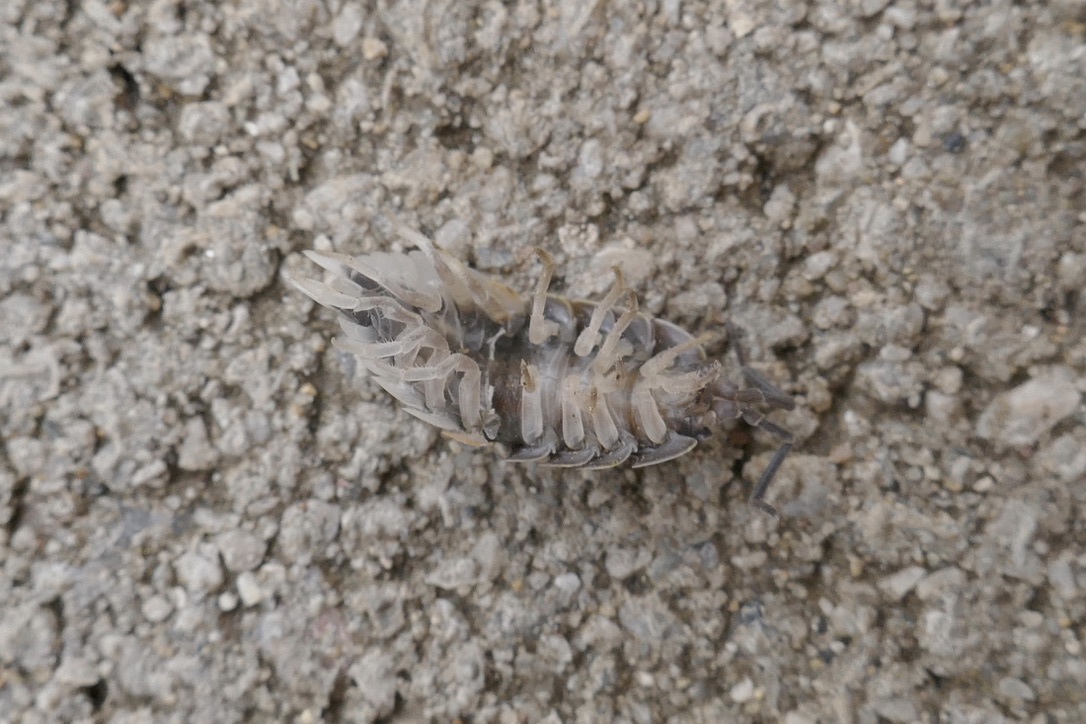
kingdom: Animalia
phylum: Arthropoda
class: Malacostraca
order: Isopoda
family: Porcellionidae
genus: Porcellio
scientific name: Porcellio scaber
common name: Common rough woodlouse
